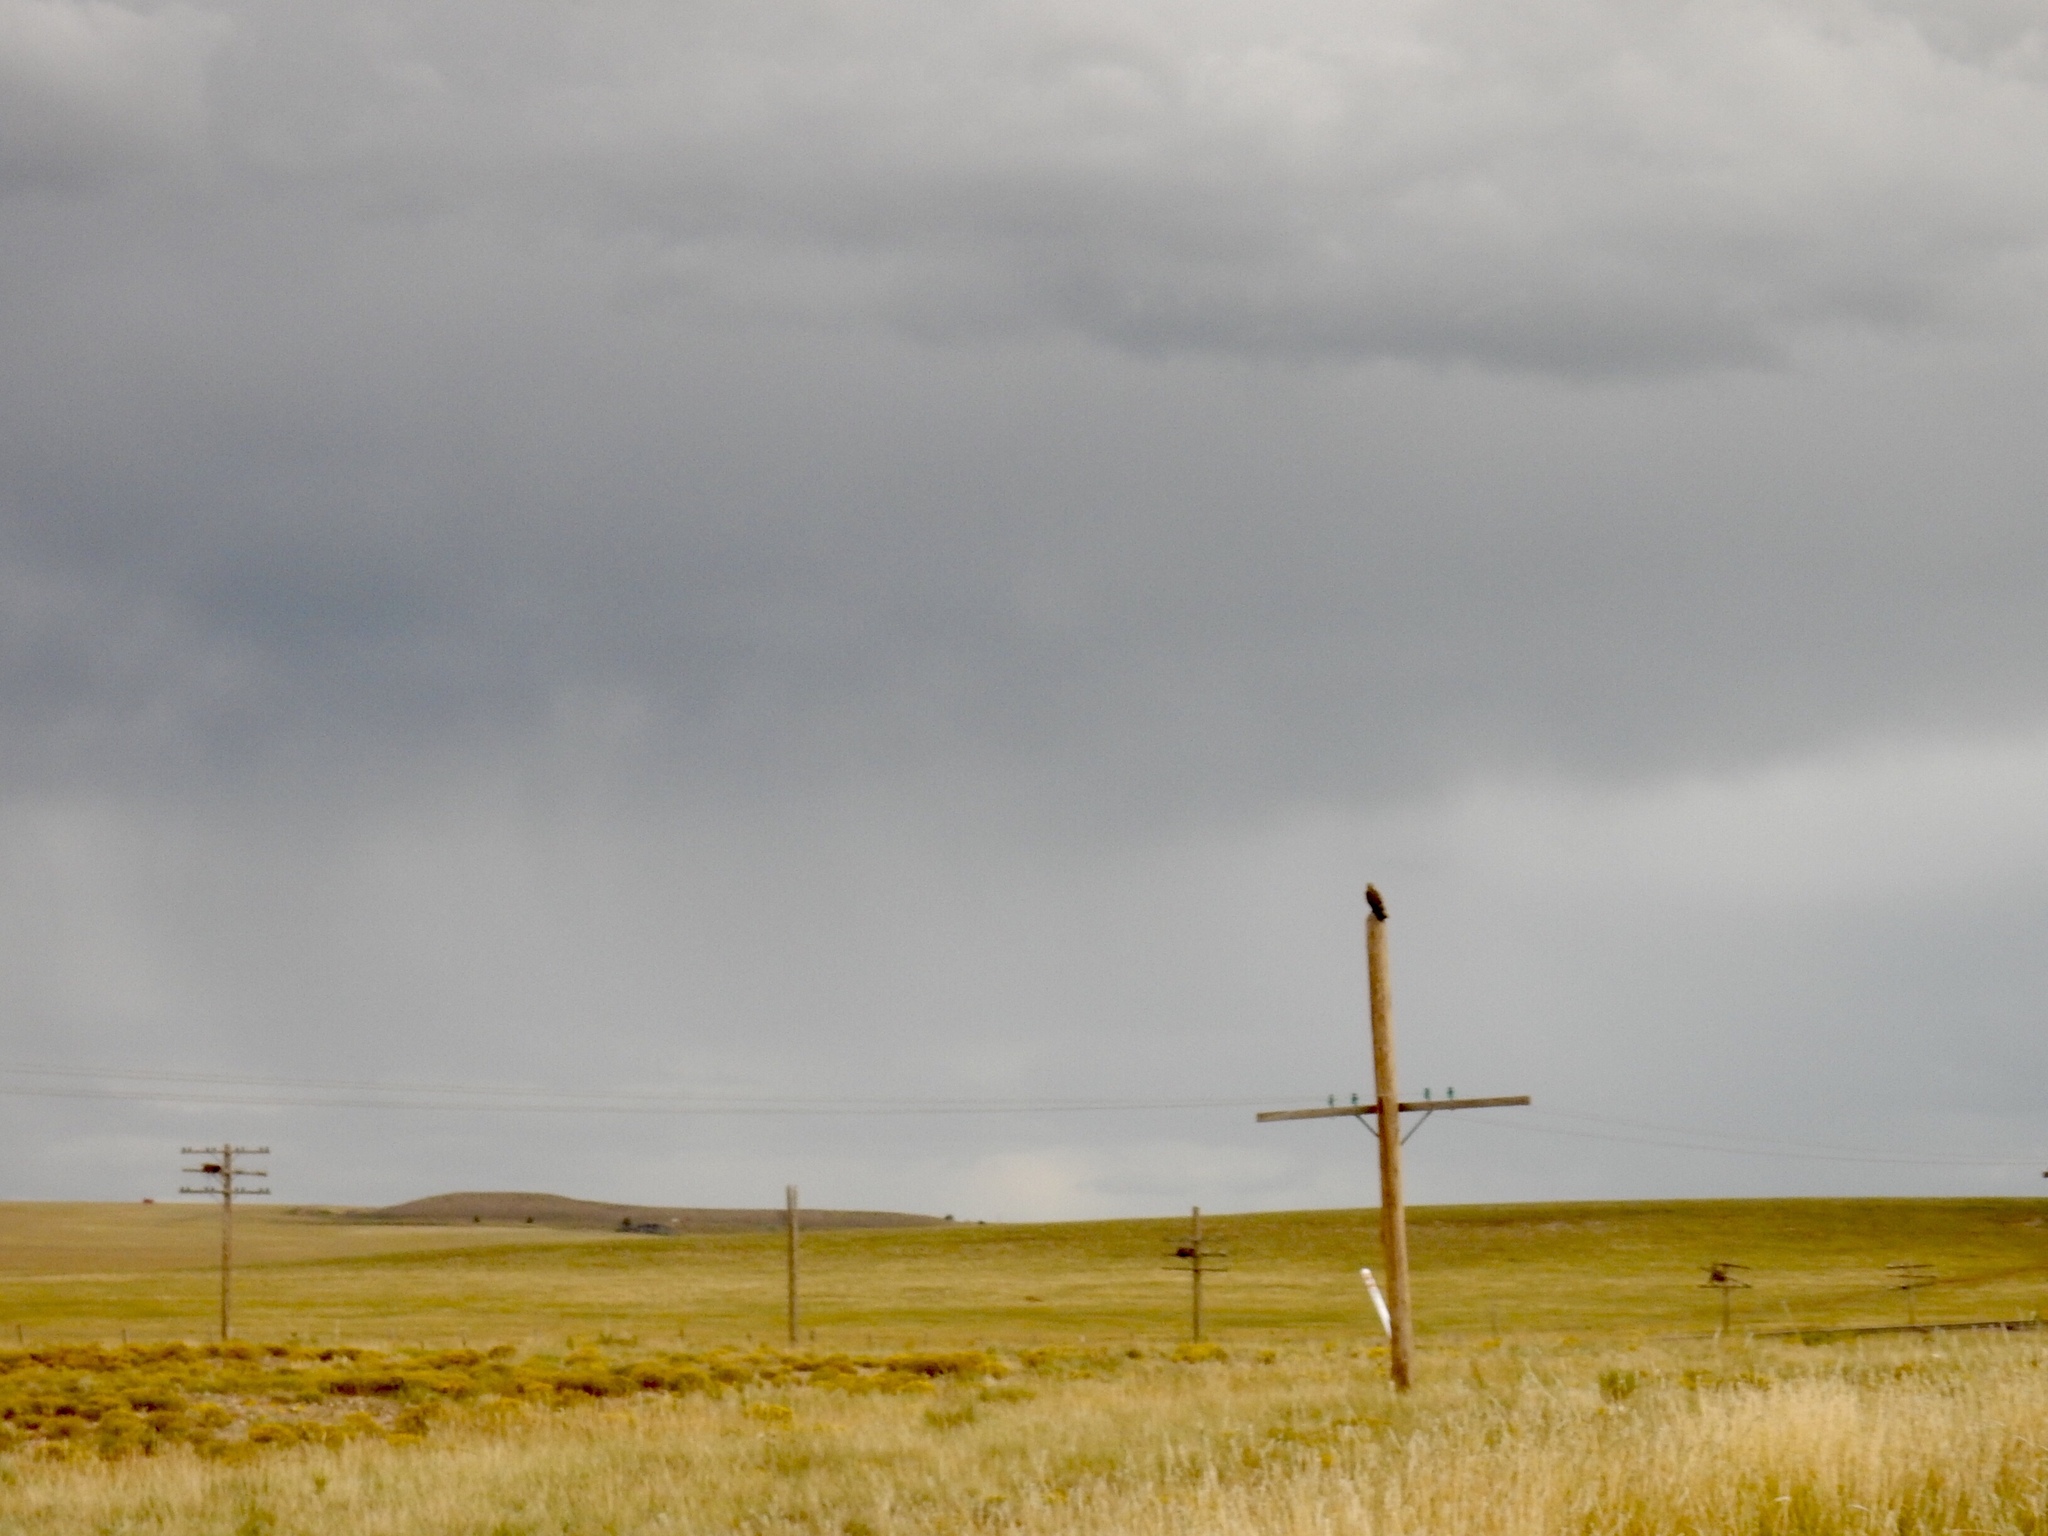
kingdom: Animalia
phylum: Chordata
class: Aves
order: Accipitriformes
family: Accipitridae
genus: Buteo
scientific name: Buteo swainsoni
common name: Swainson's hawk
